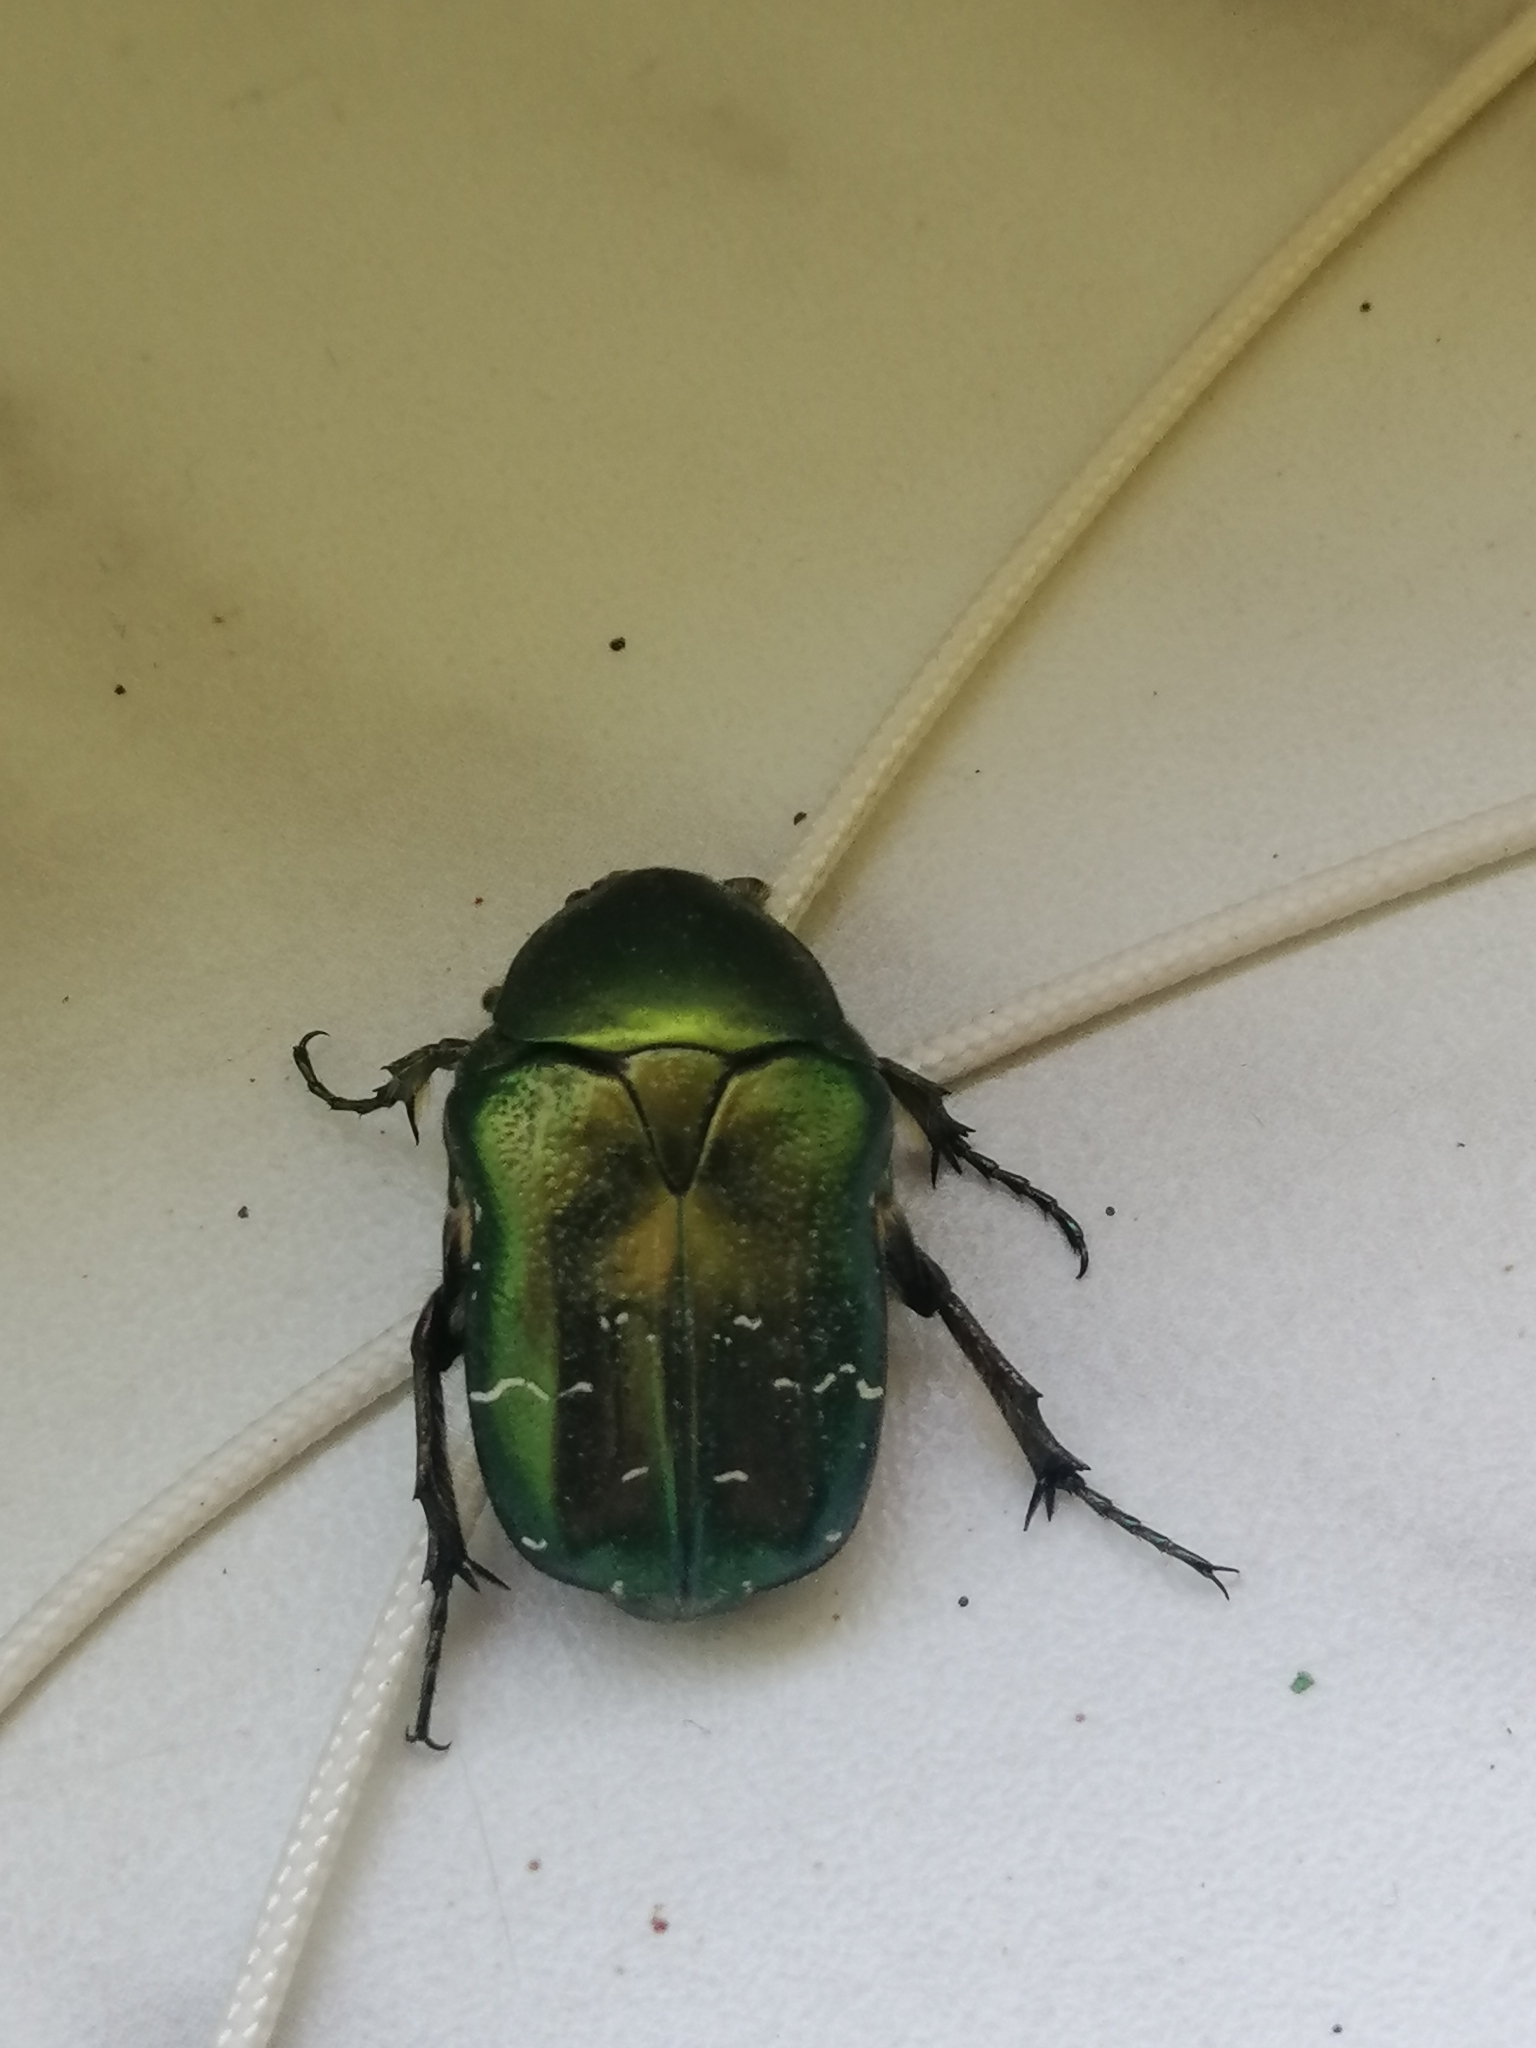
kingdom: Animalia
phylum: Arthropoda
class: Insecta
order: Coleoptera
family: Scarabaeidae
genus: Cetonia
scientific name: Cetonia aurata
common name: Rose chafer
